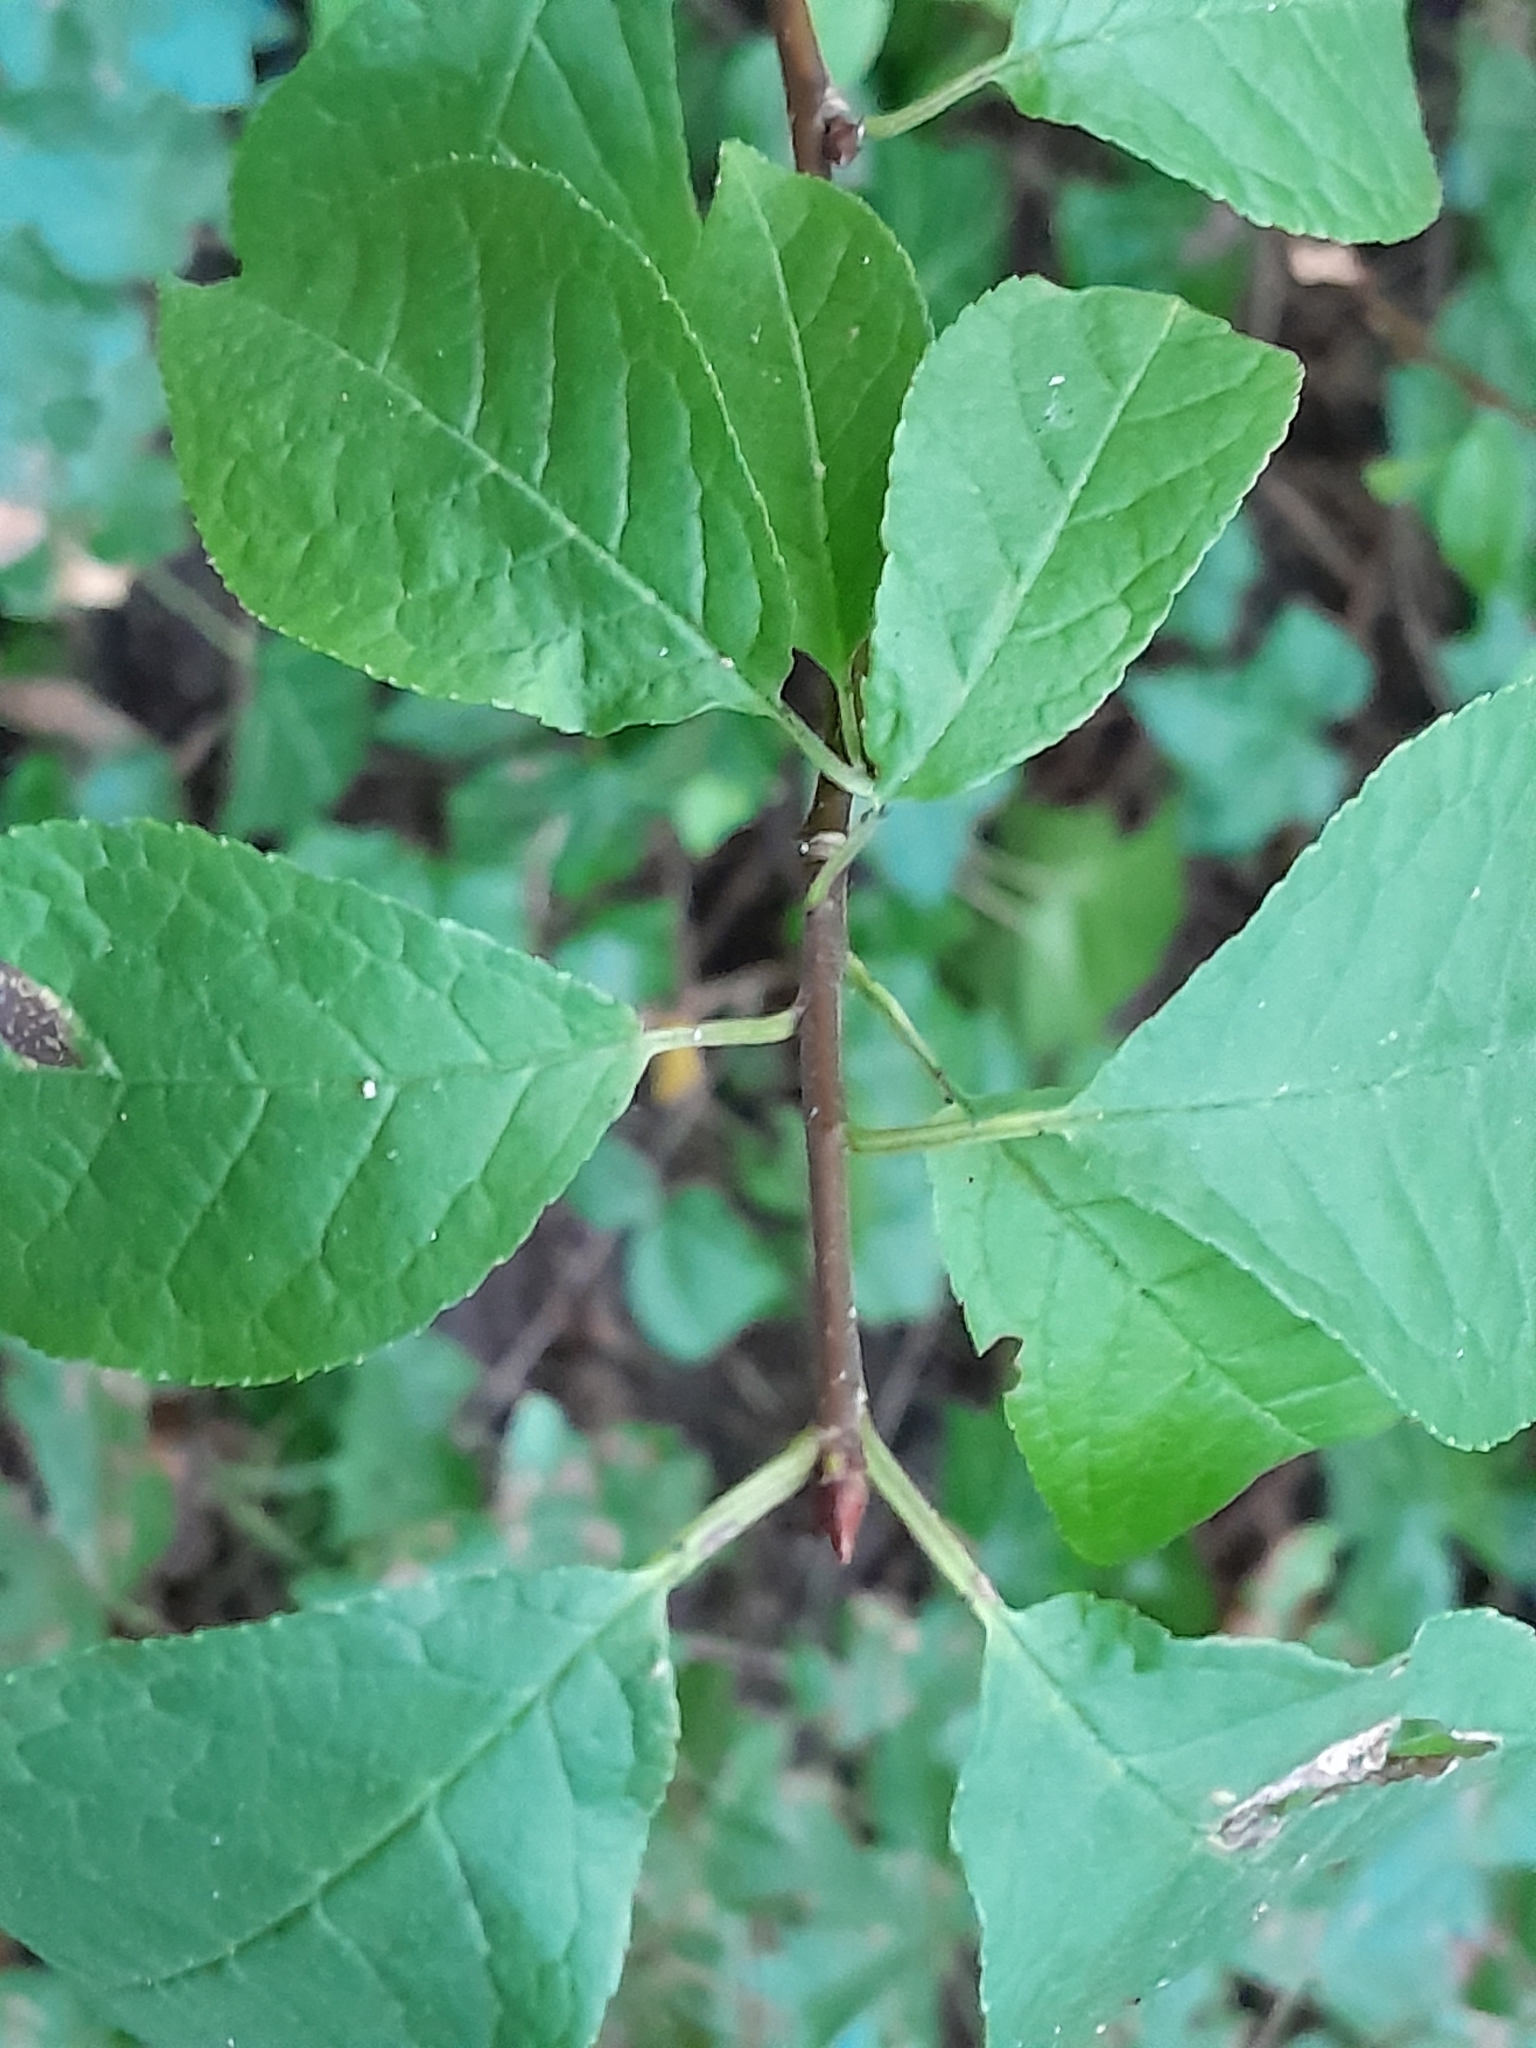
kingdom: Plantae
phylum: Tracheophyta
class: Magnoliopsida
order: Rosales
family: Rosaceae
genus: Prunus
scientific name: Prunus padus
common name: Bird cherry
